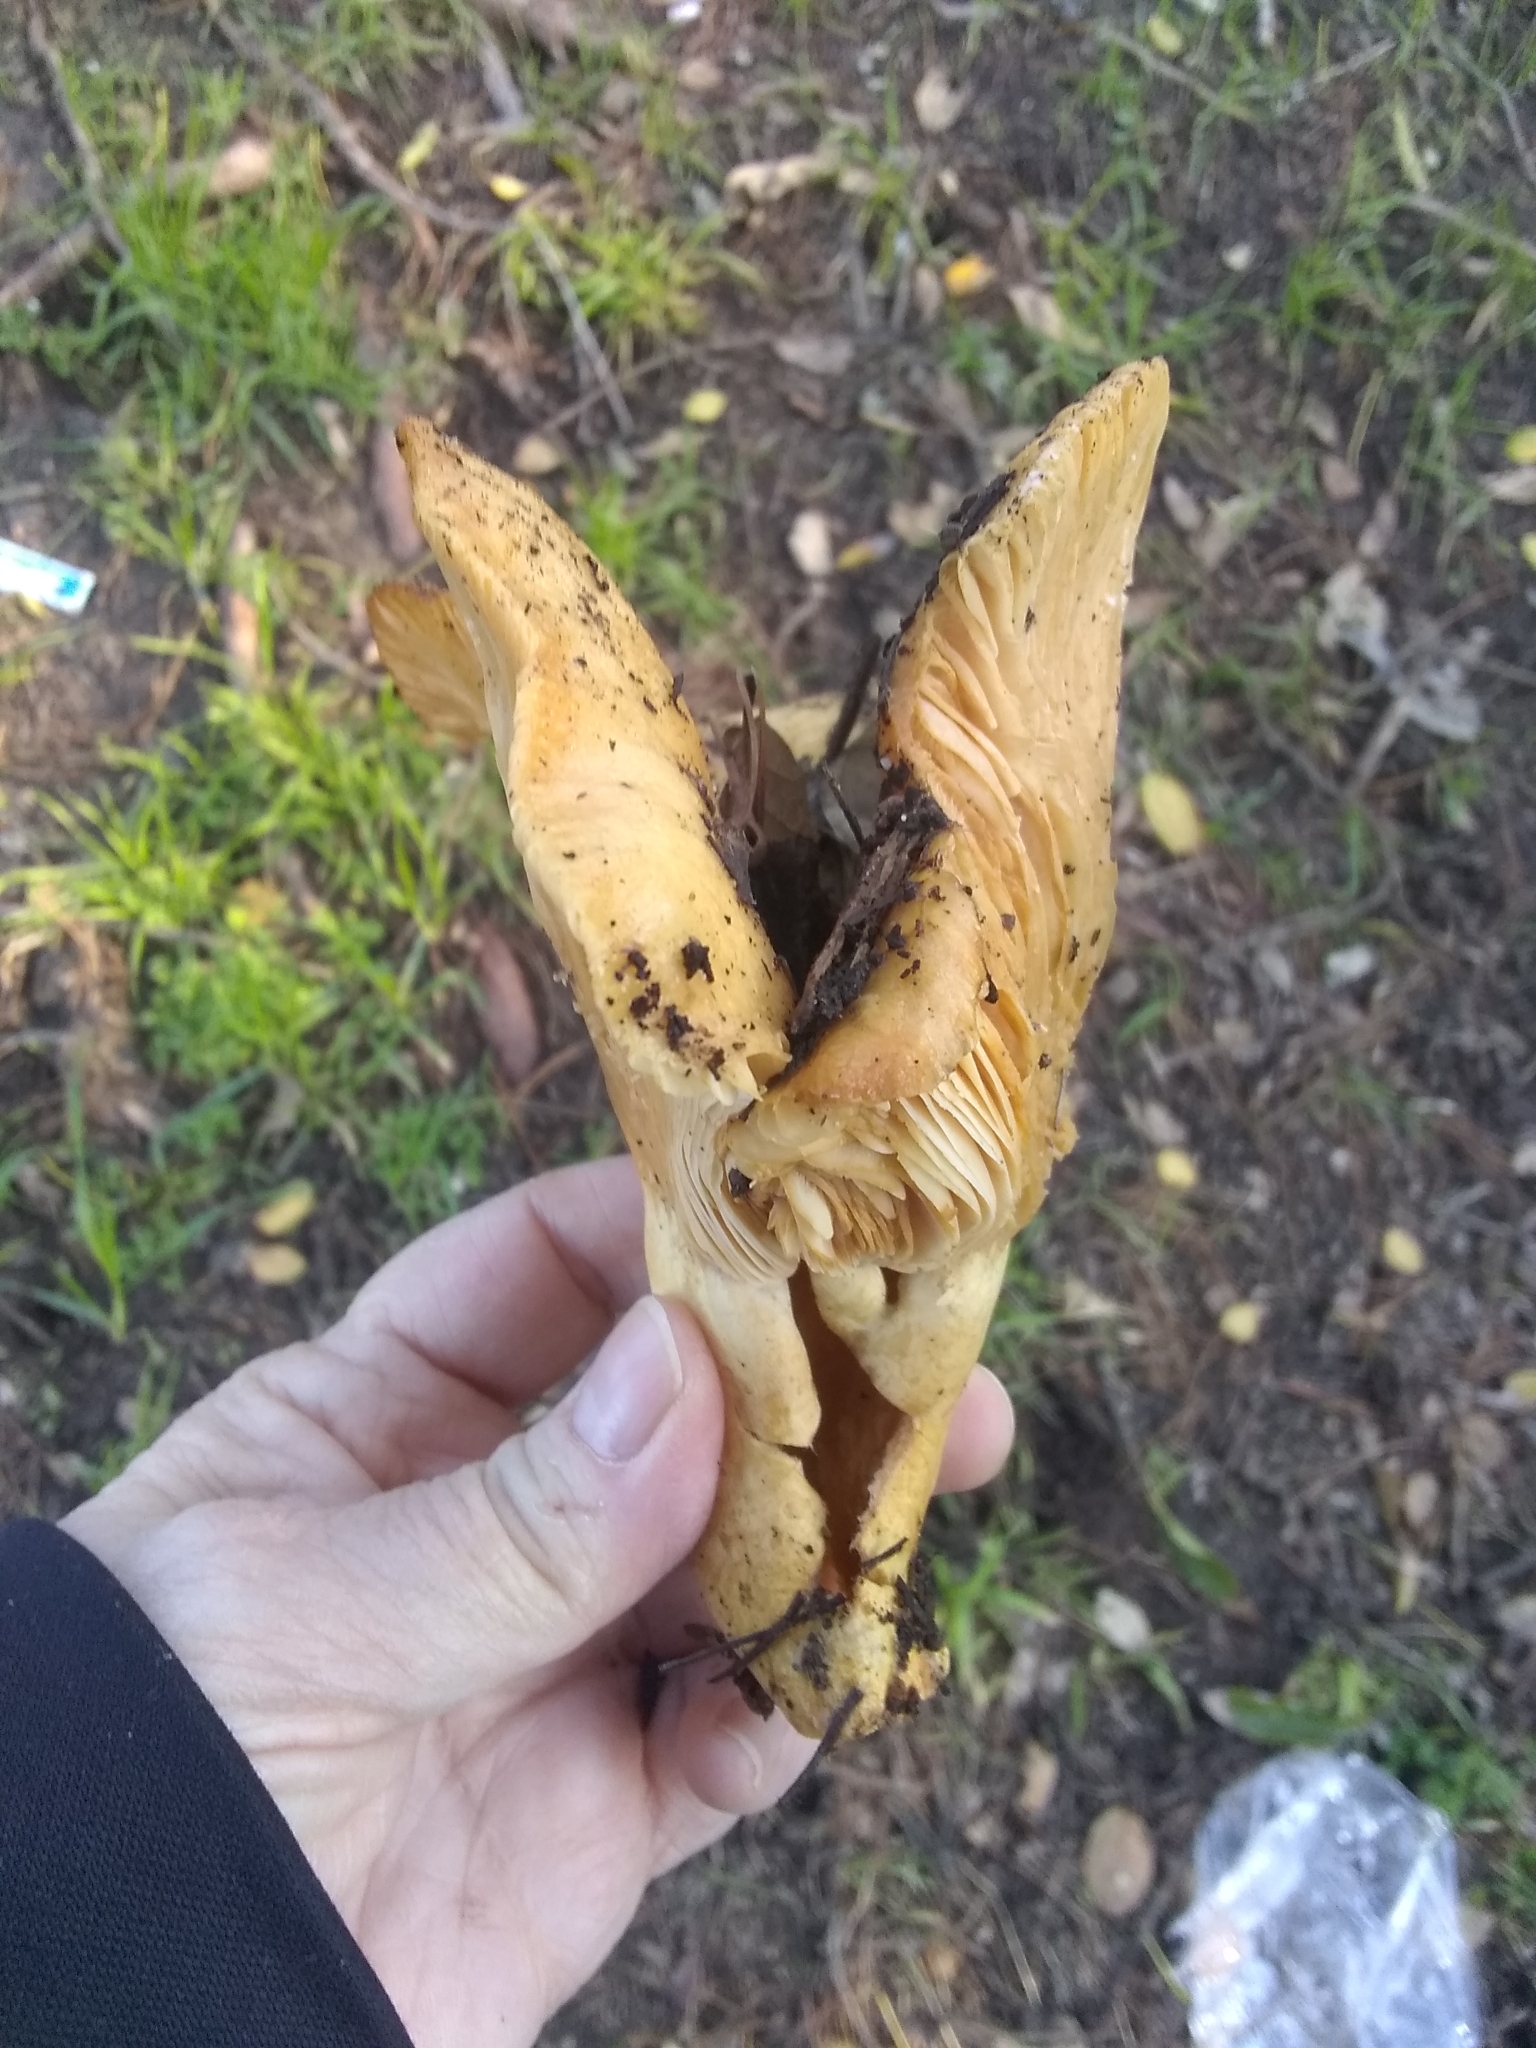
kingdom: Fungi
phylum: Basidiomycota
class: Agaricomycetes
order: Russulales
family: Russulaceae
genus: Lactarius
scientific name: Lactarius alnicola
